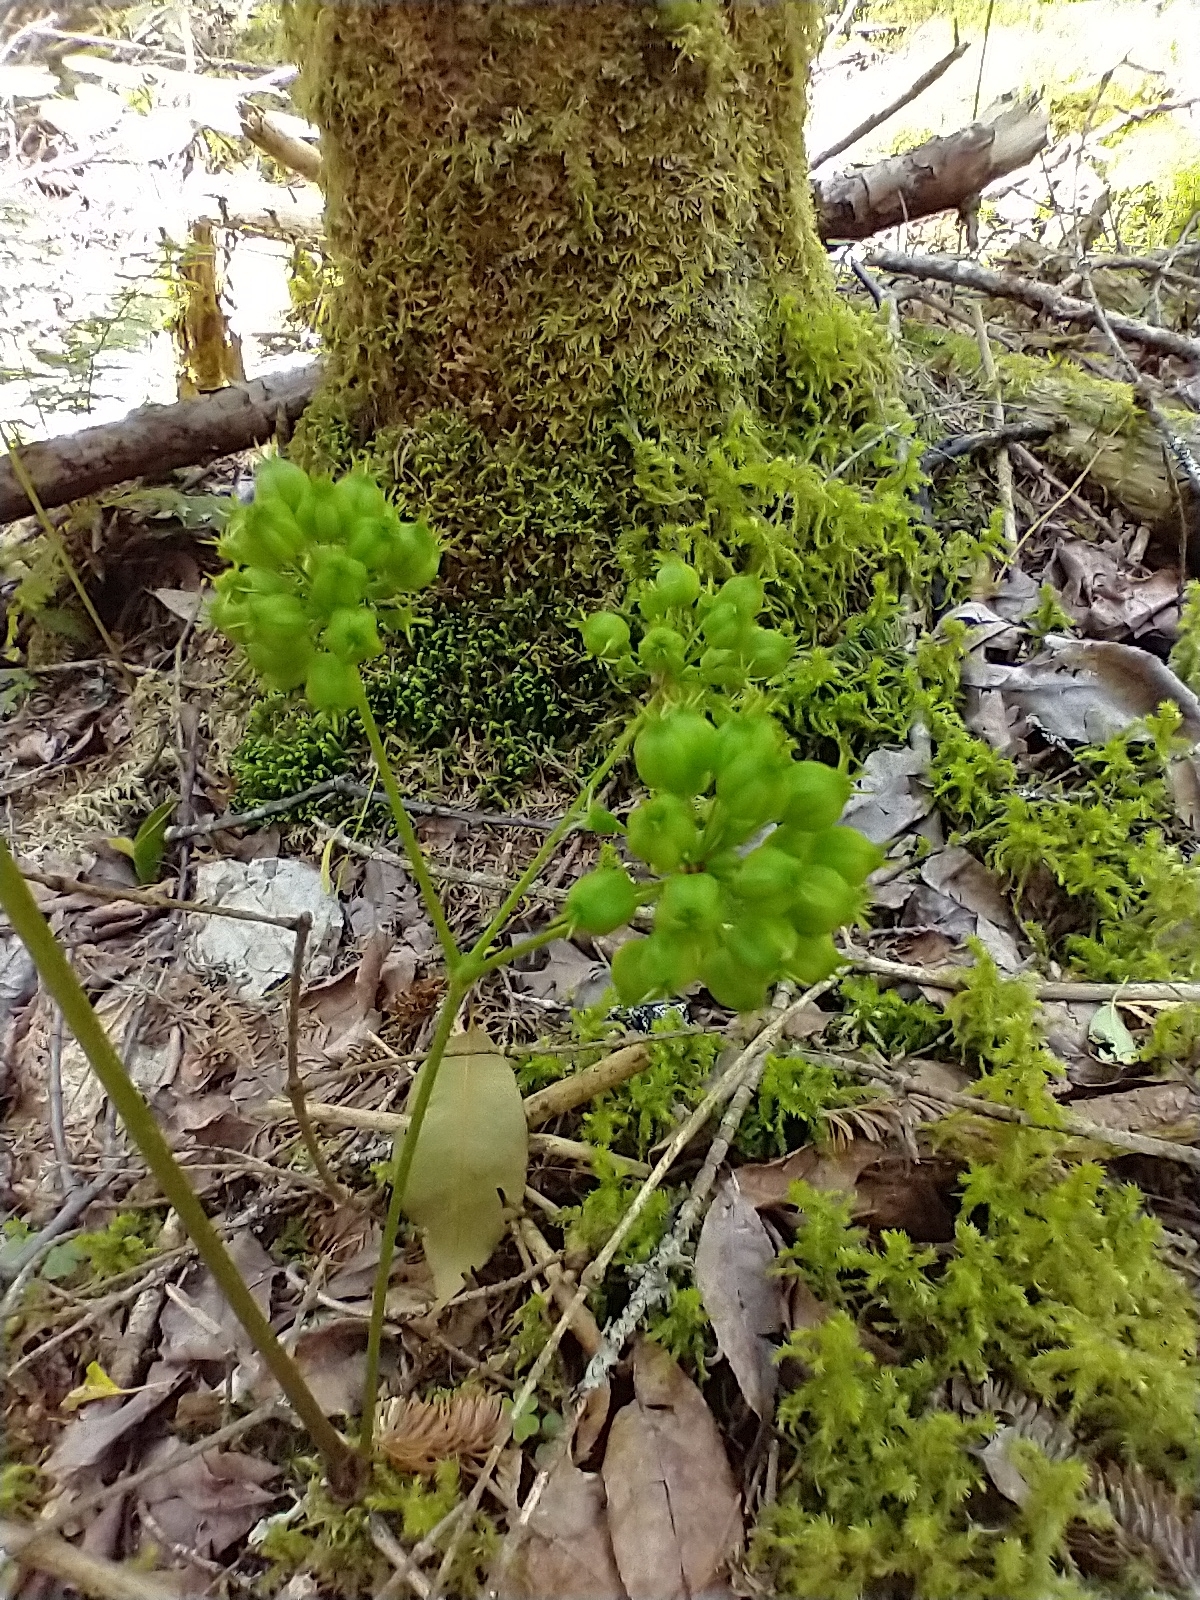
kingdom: Plantae
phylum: Tracheophyta
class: Magnoliopsida
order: Apiales
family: Araliaceae
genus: Aralia
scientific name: Aralia nudicaulis
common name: Wild sarsaparilla
